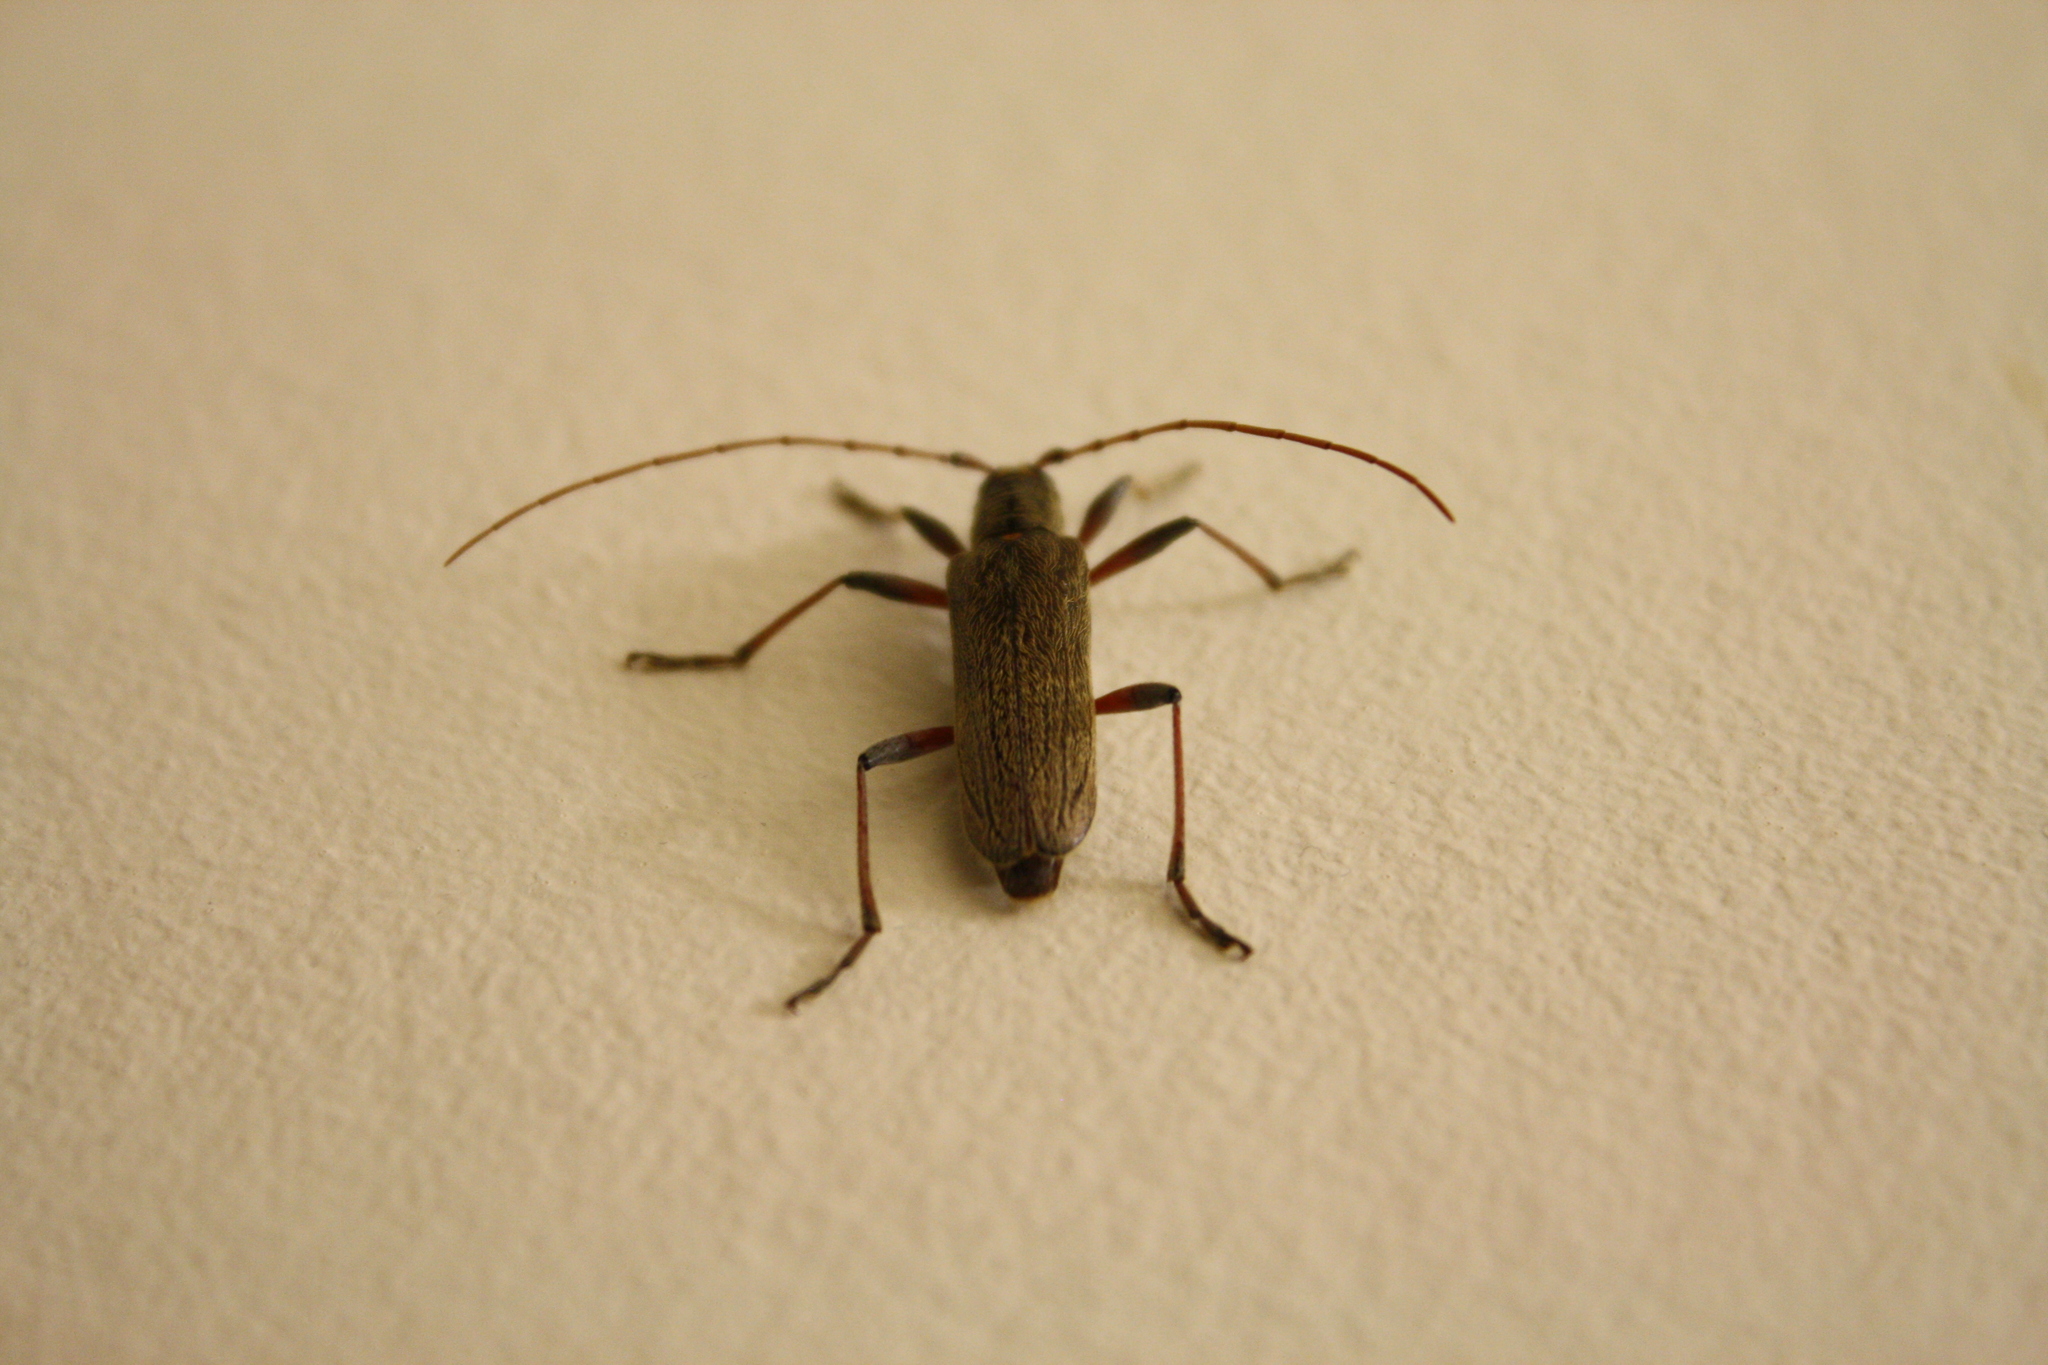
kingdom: Animalia
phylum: Arthropoda
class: Insecta
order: Coleoptera
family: Cerambycidae
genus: Oemona
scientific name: Oemona hirta
